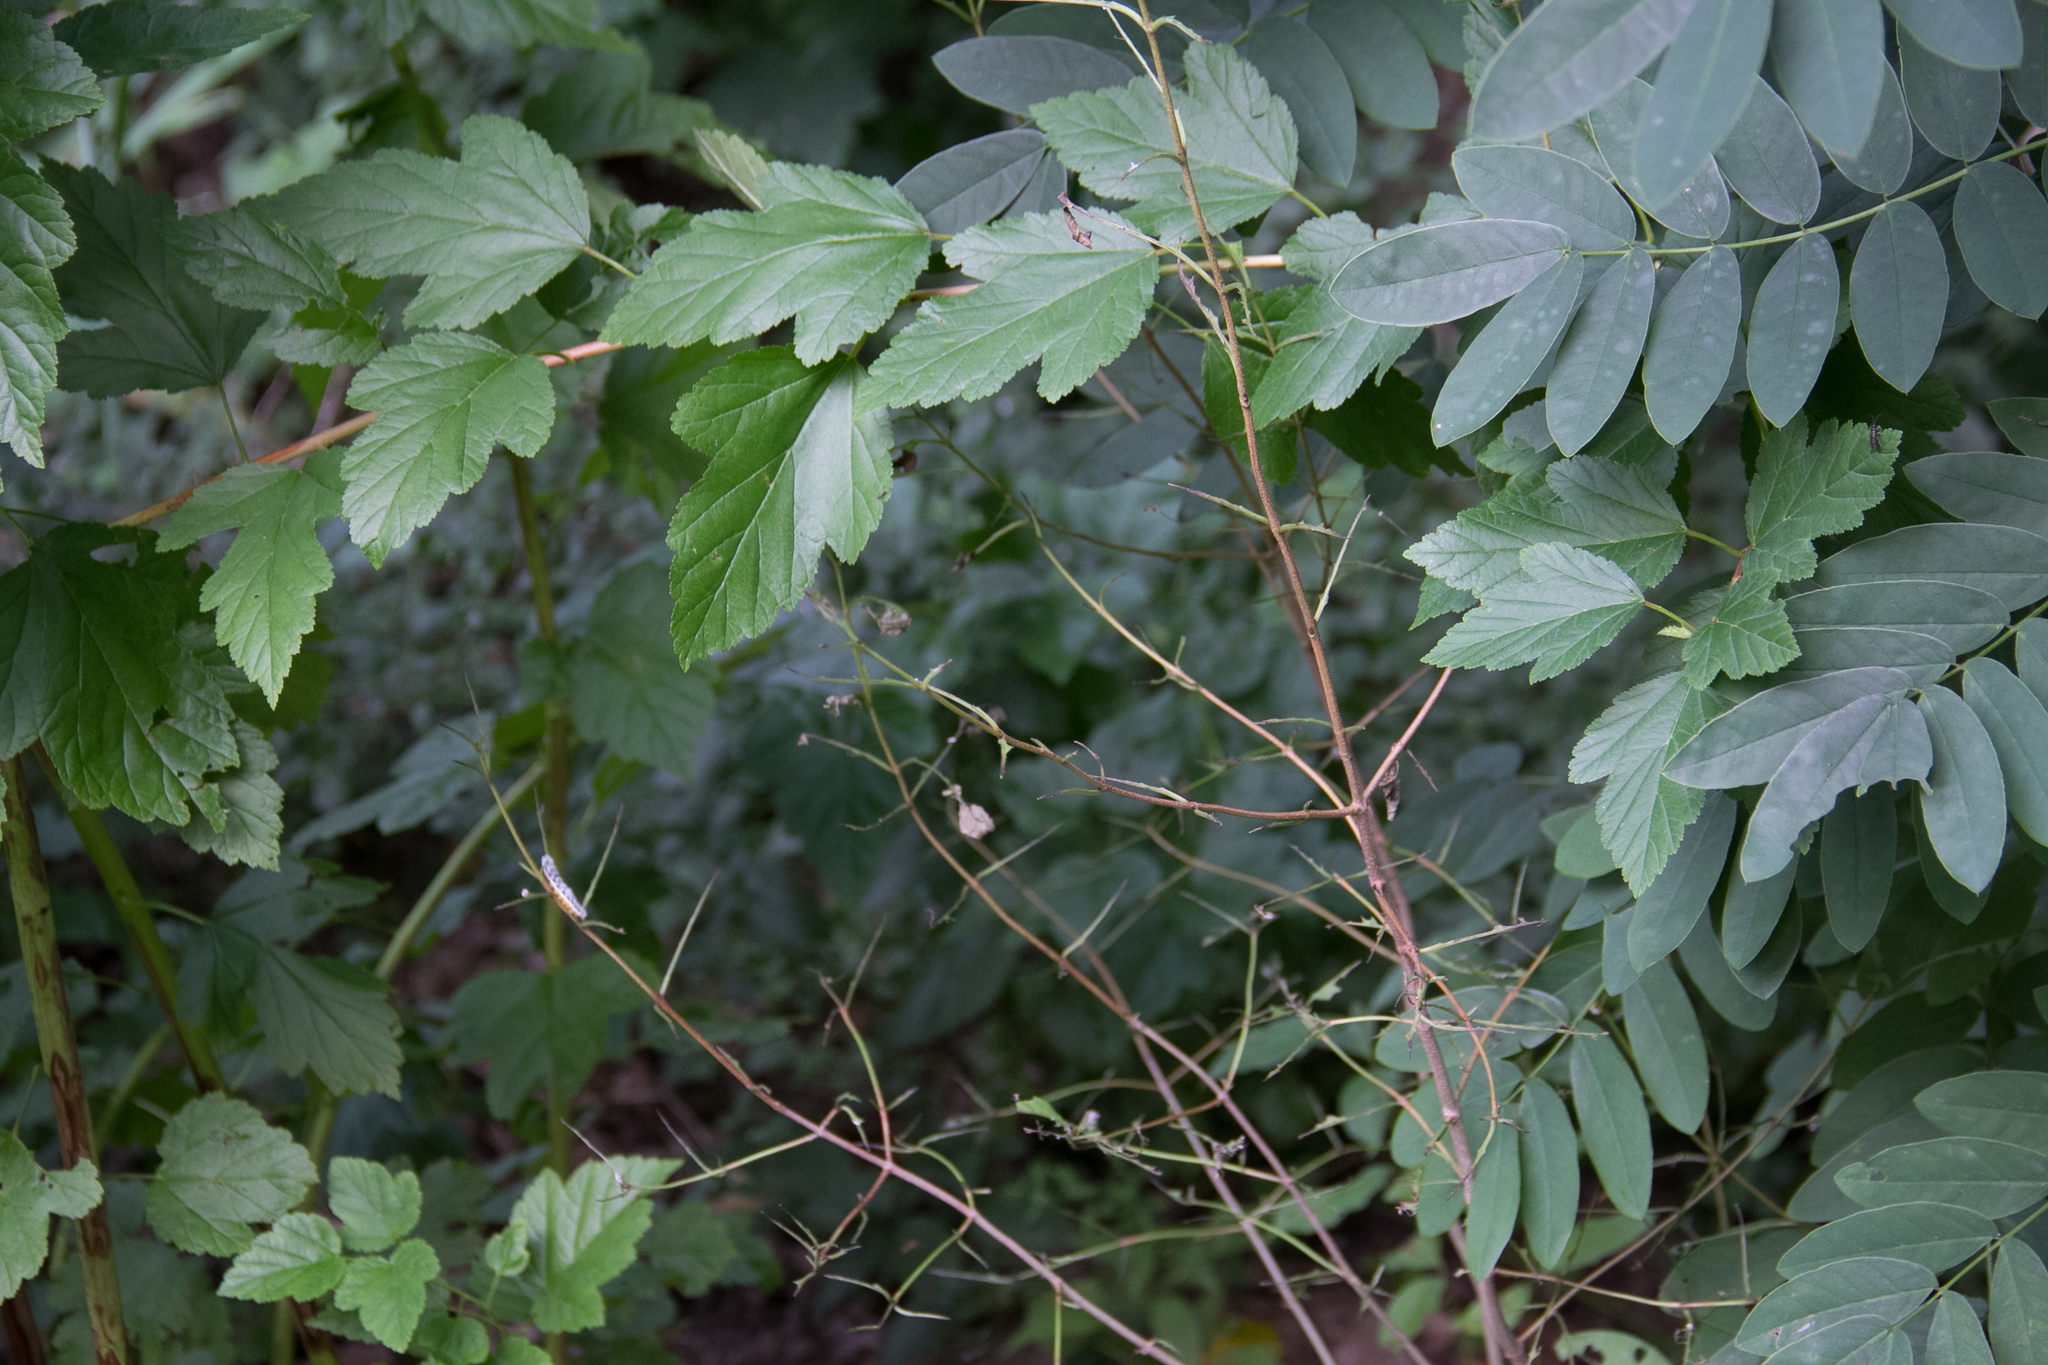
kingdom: Animalia
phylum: Arthropoda
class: Insecta
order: Hymenoptera
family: Tenthredinidae
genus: Macremphytus
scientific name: Macremphytus
